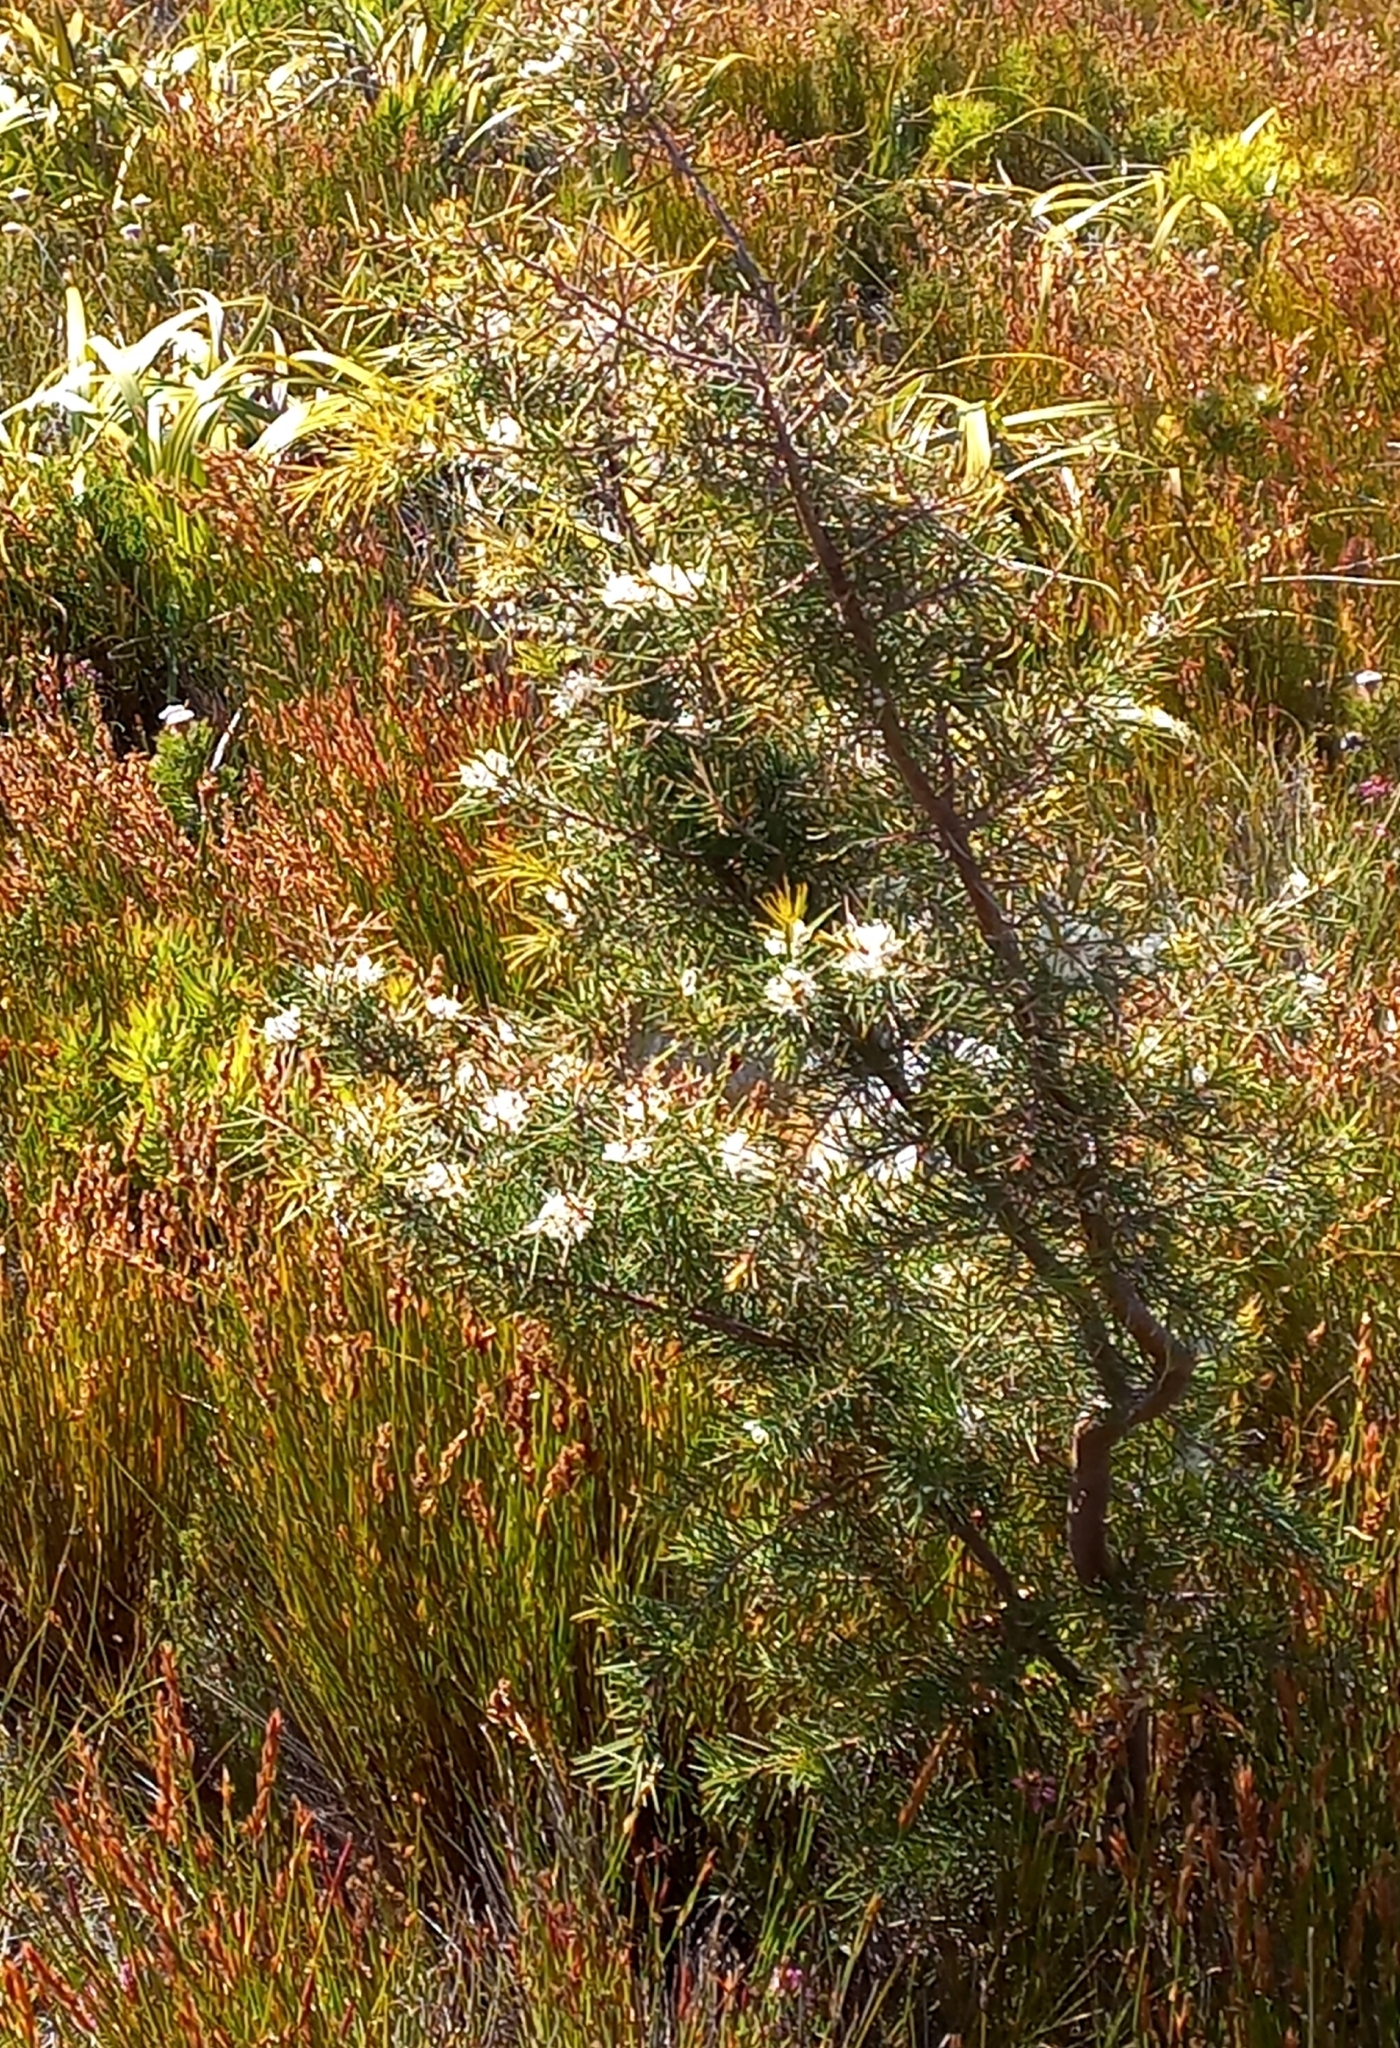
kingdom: Plantae
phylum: Tracheophyta
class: Magnoliopsida
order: Proteales
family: Proteaceae
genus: Hakea
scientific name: Hakea sericea
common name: Needle bush
